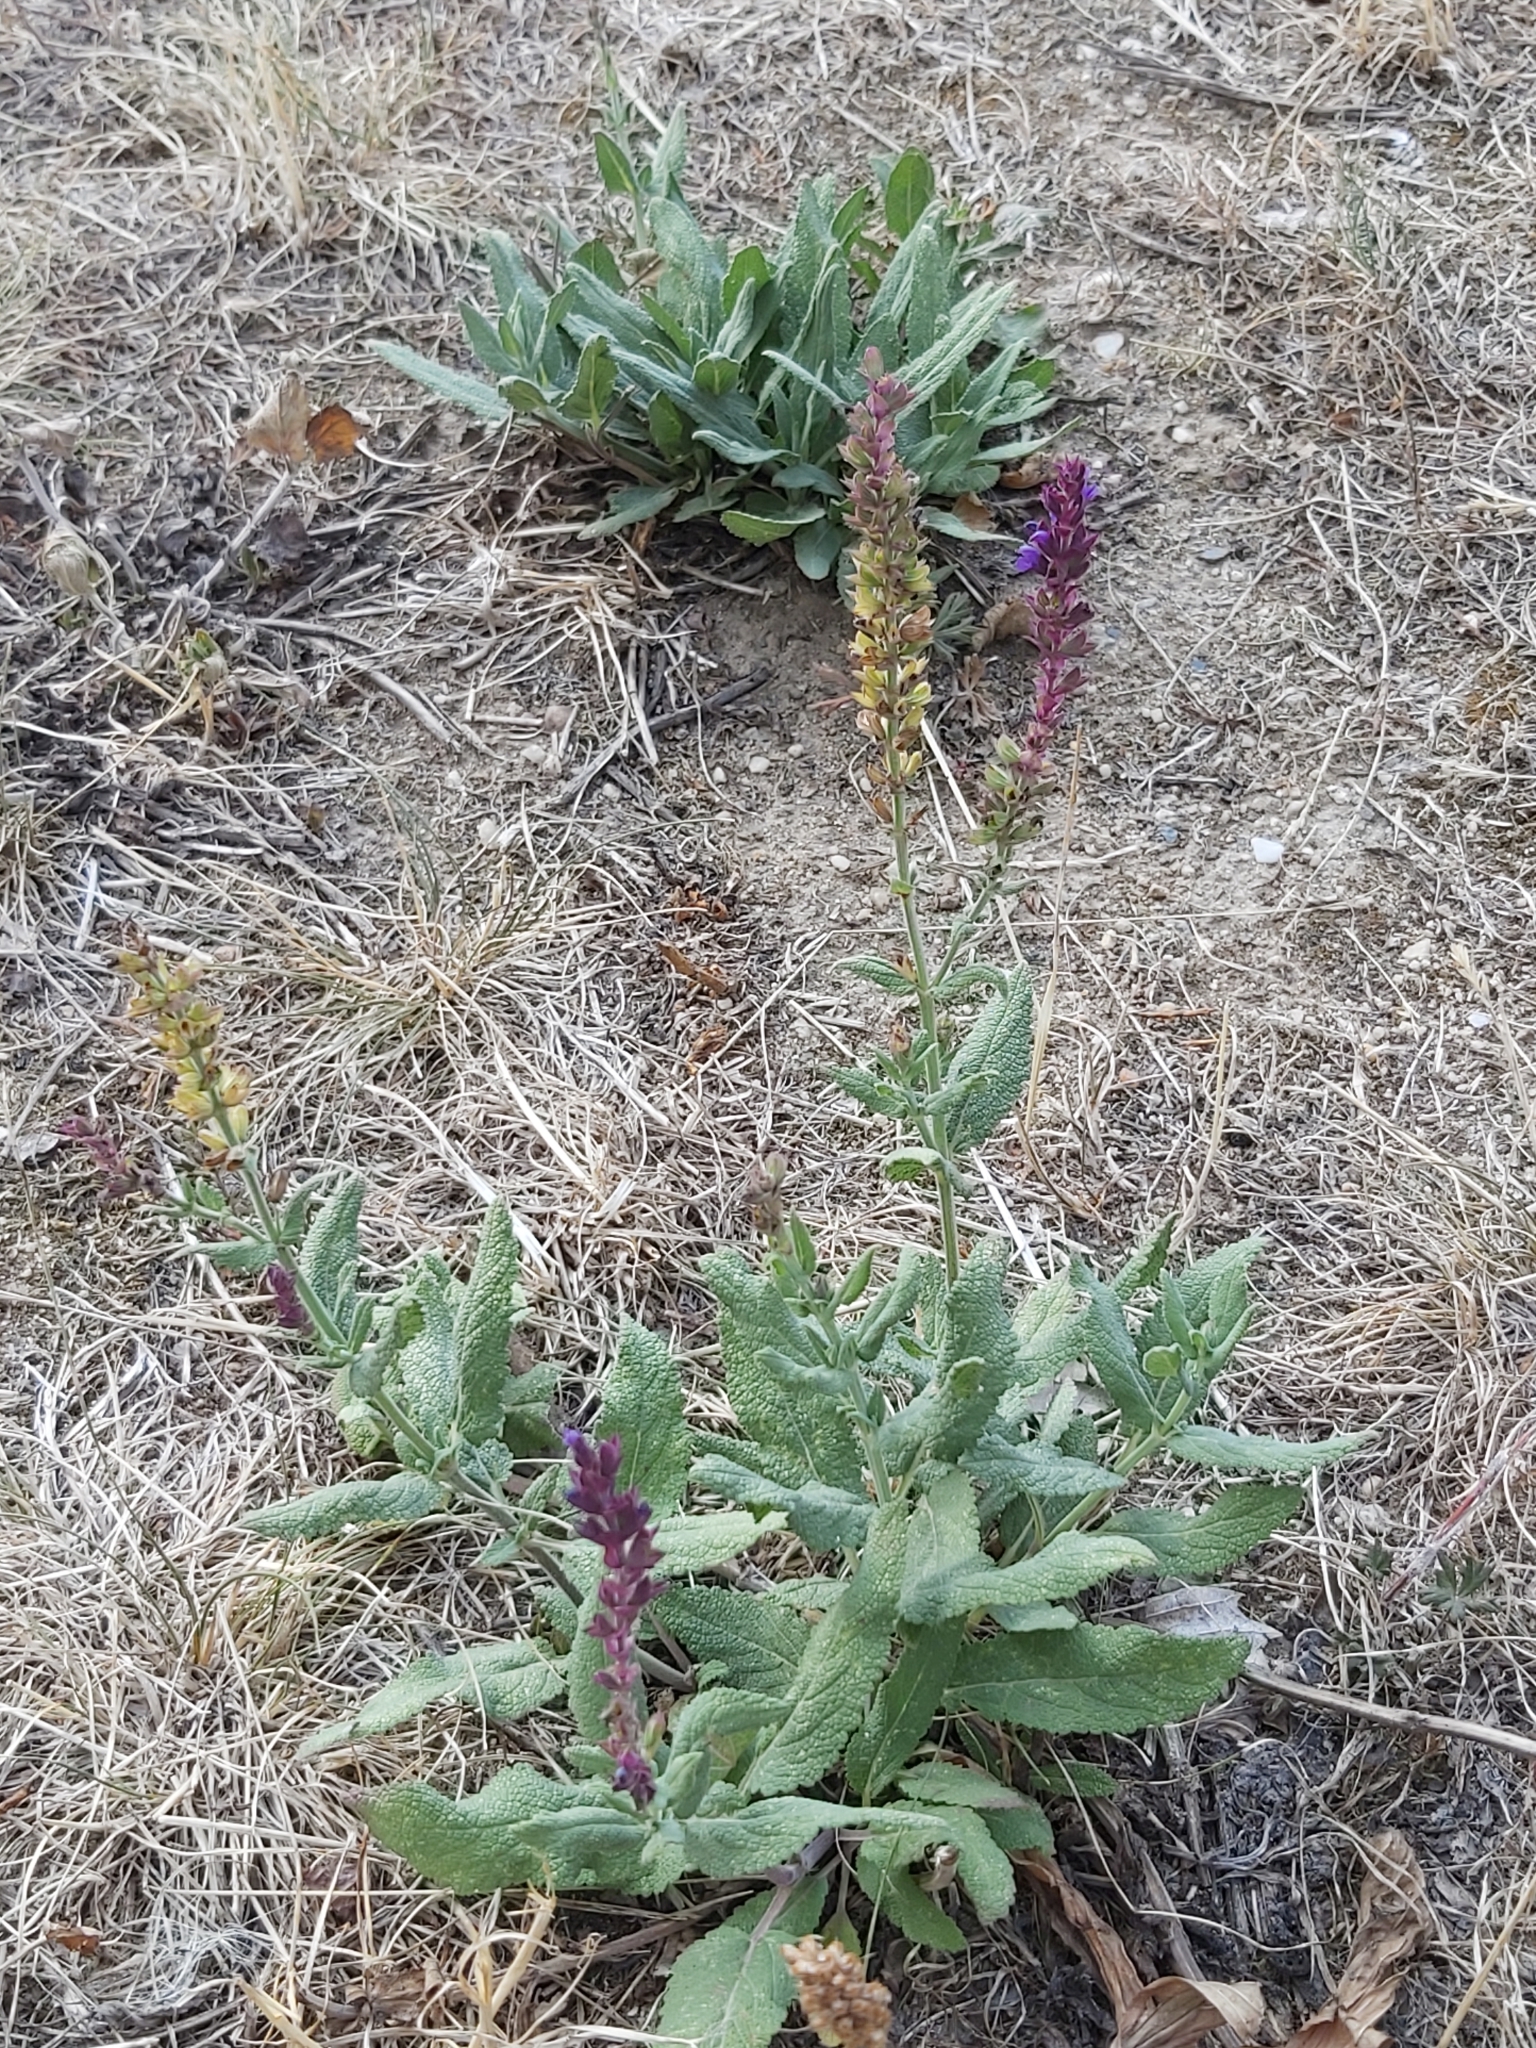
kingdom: Plantae
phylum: Tracheophyta
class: Magnoliopsida
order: Lamiales
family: Lamiaceae
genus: Salvia
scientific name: Salvia nemorosa
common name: Balkan clary
